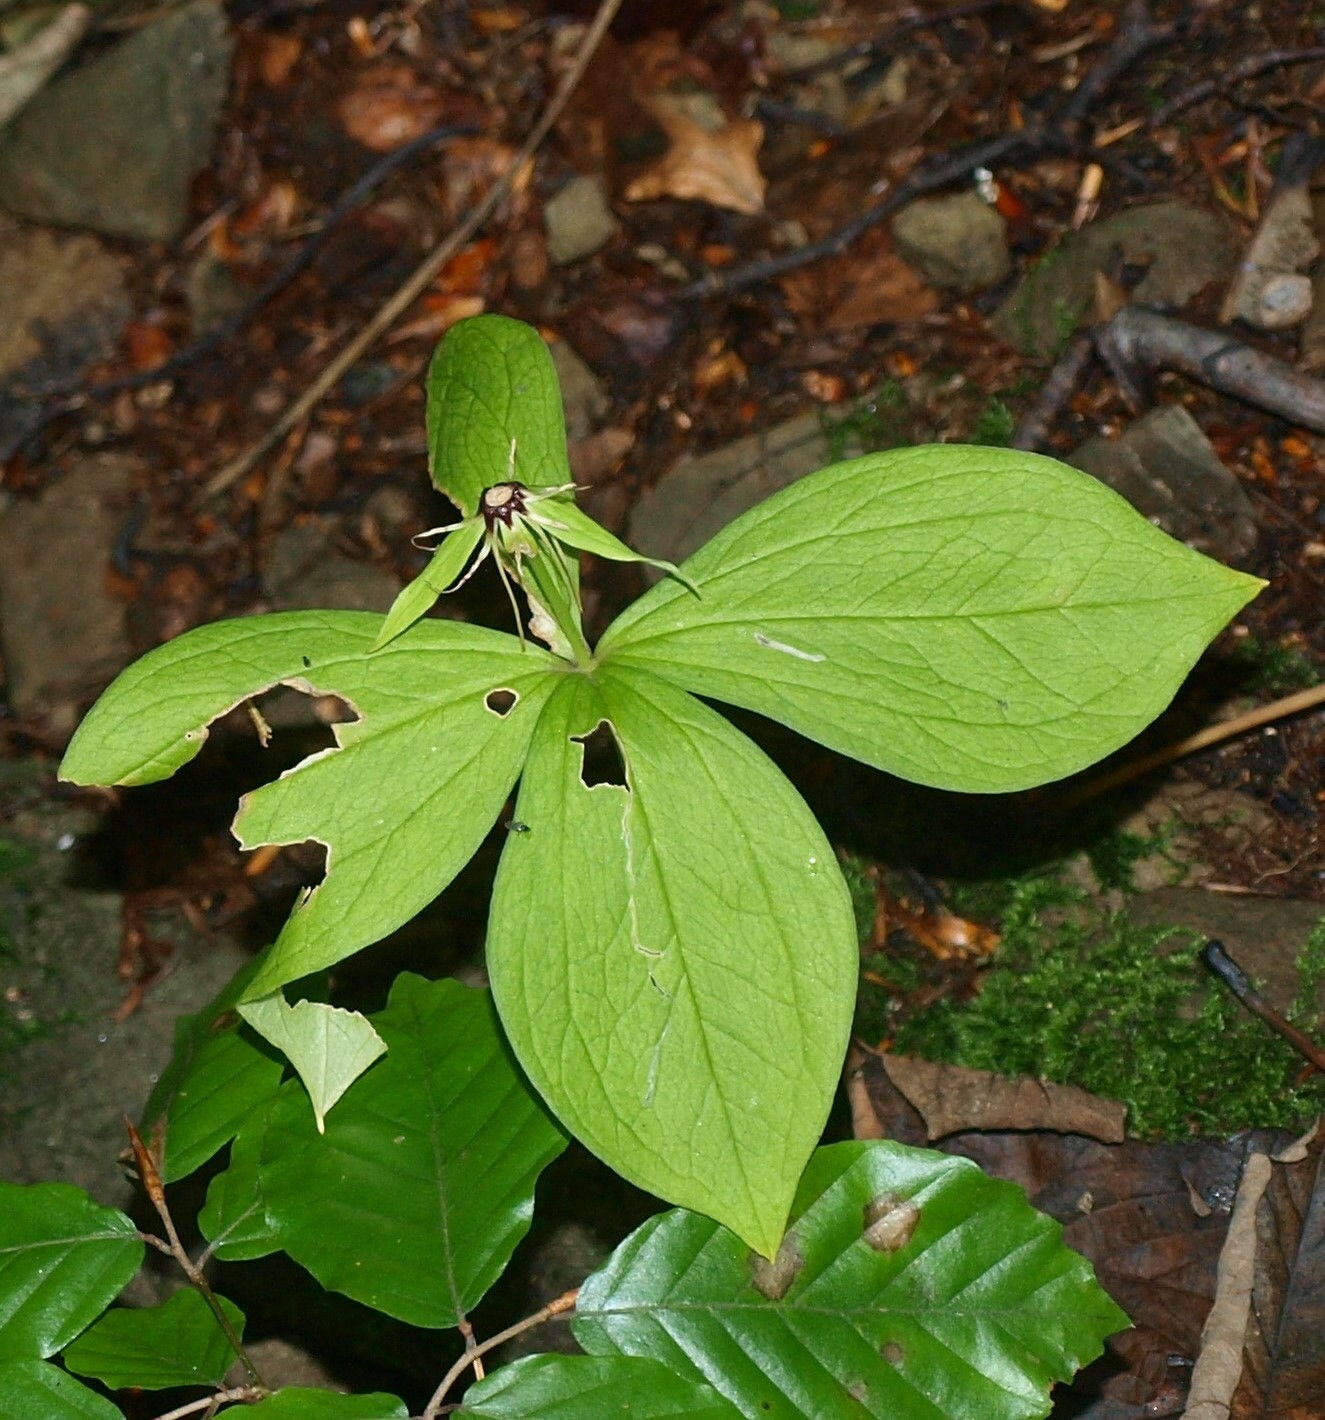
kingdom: Plantae
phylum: Tracheophyta
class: Liliopsida
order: Liliales
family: Melanthiaceae
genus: Paris
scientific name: Paris quadrifolia
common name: Herb-paris
